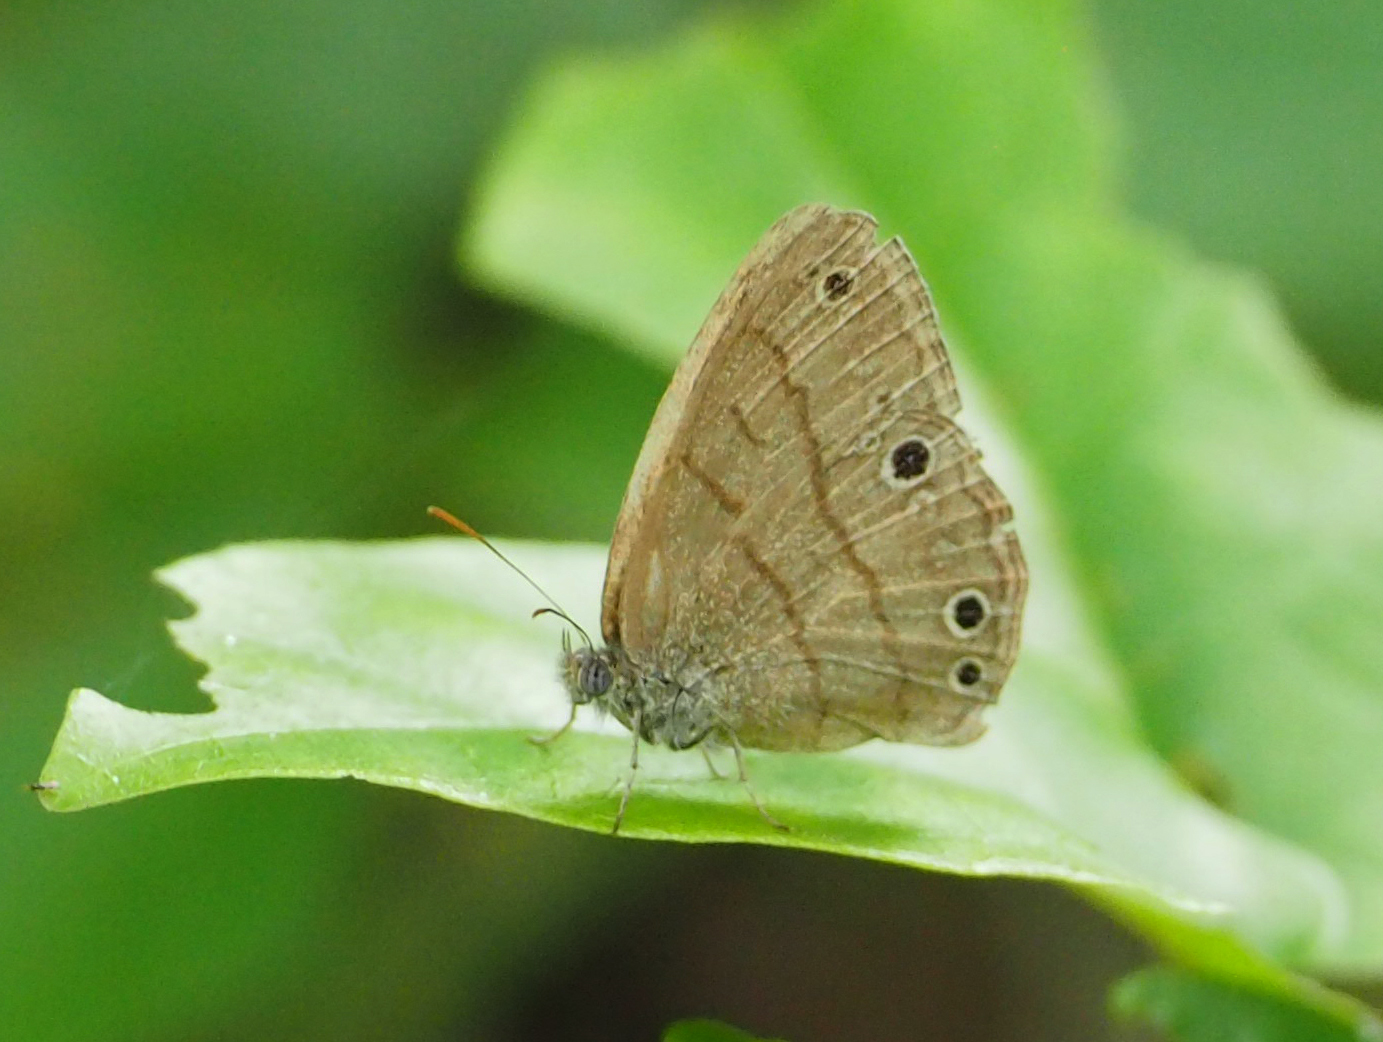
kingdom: Animalia
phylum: Arthropoda
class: Insecta
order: Lepidoptera
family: Nymphalidae
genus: Hermeuptychia
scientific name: Hermeuptychia hermes
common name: Hermes satyr
